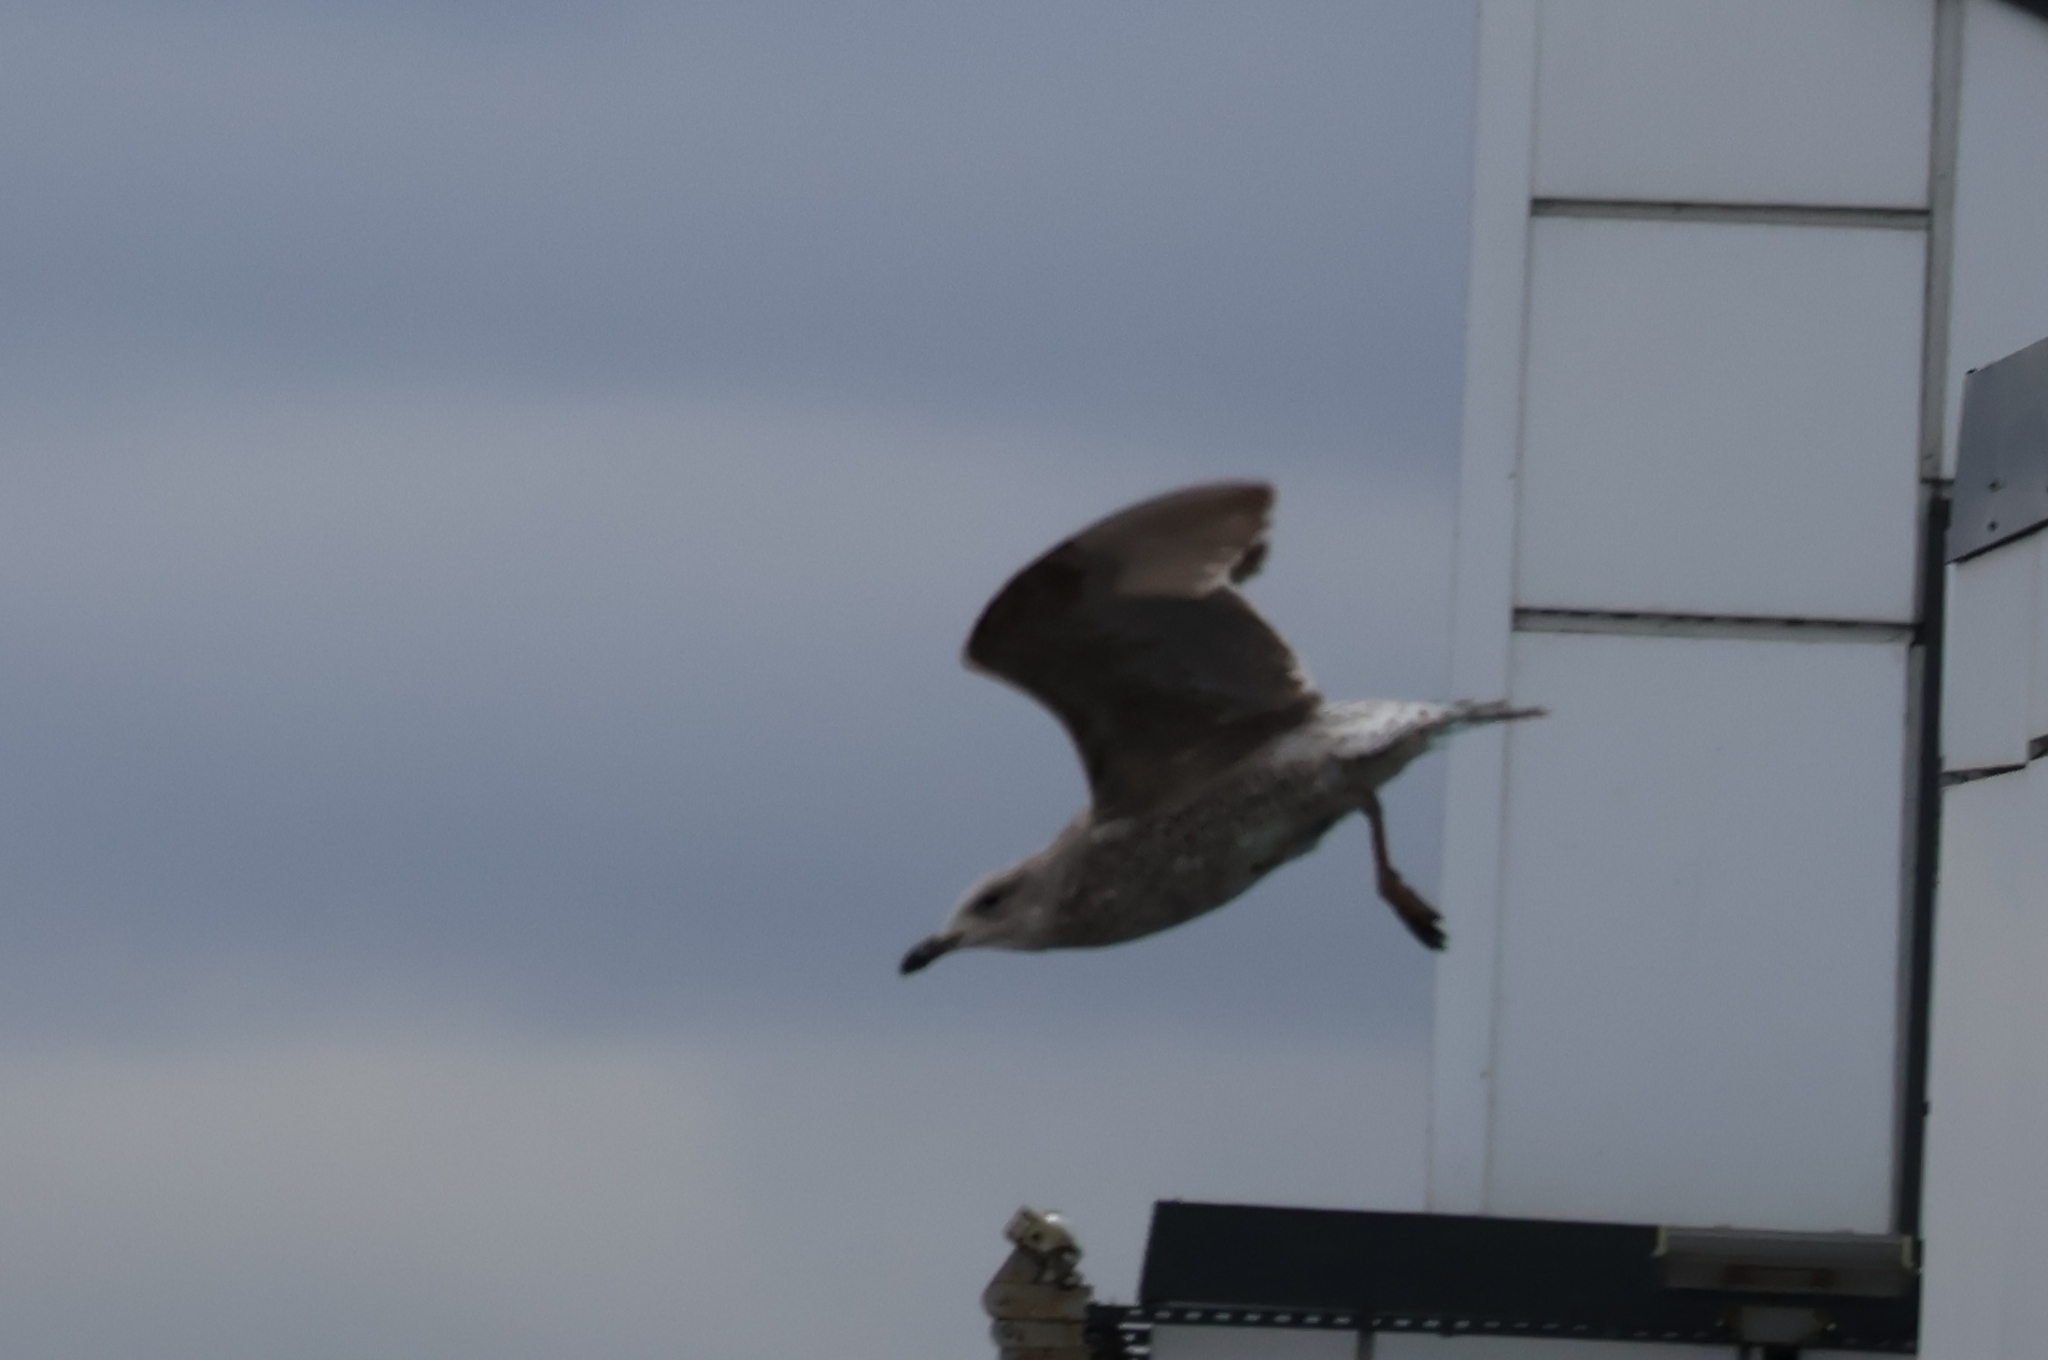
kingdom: Animalia
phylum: Chordata
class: Aves
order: Charadriiformes
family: Laridae
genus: Larus
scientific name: Larus argentatus
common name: Herring gull
